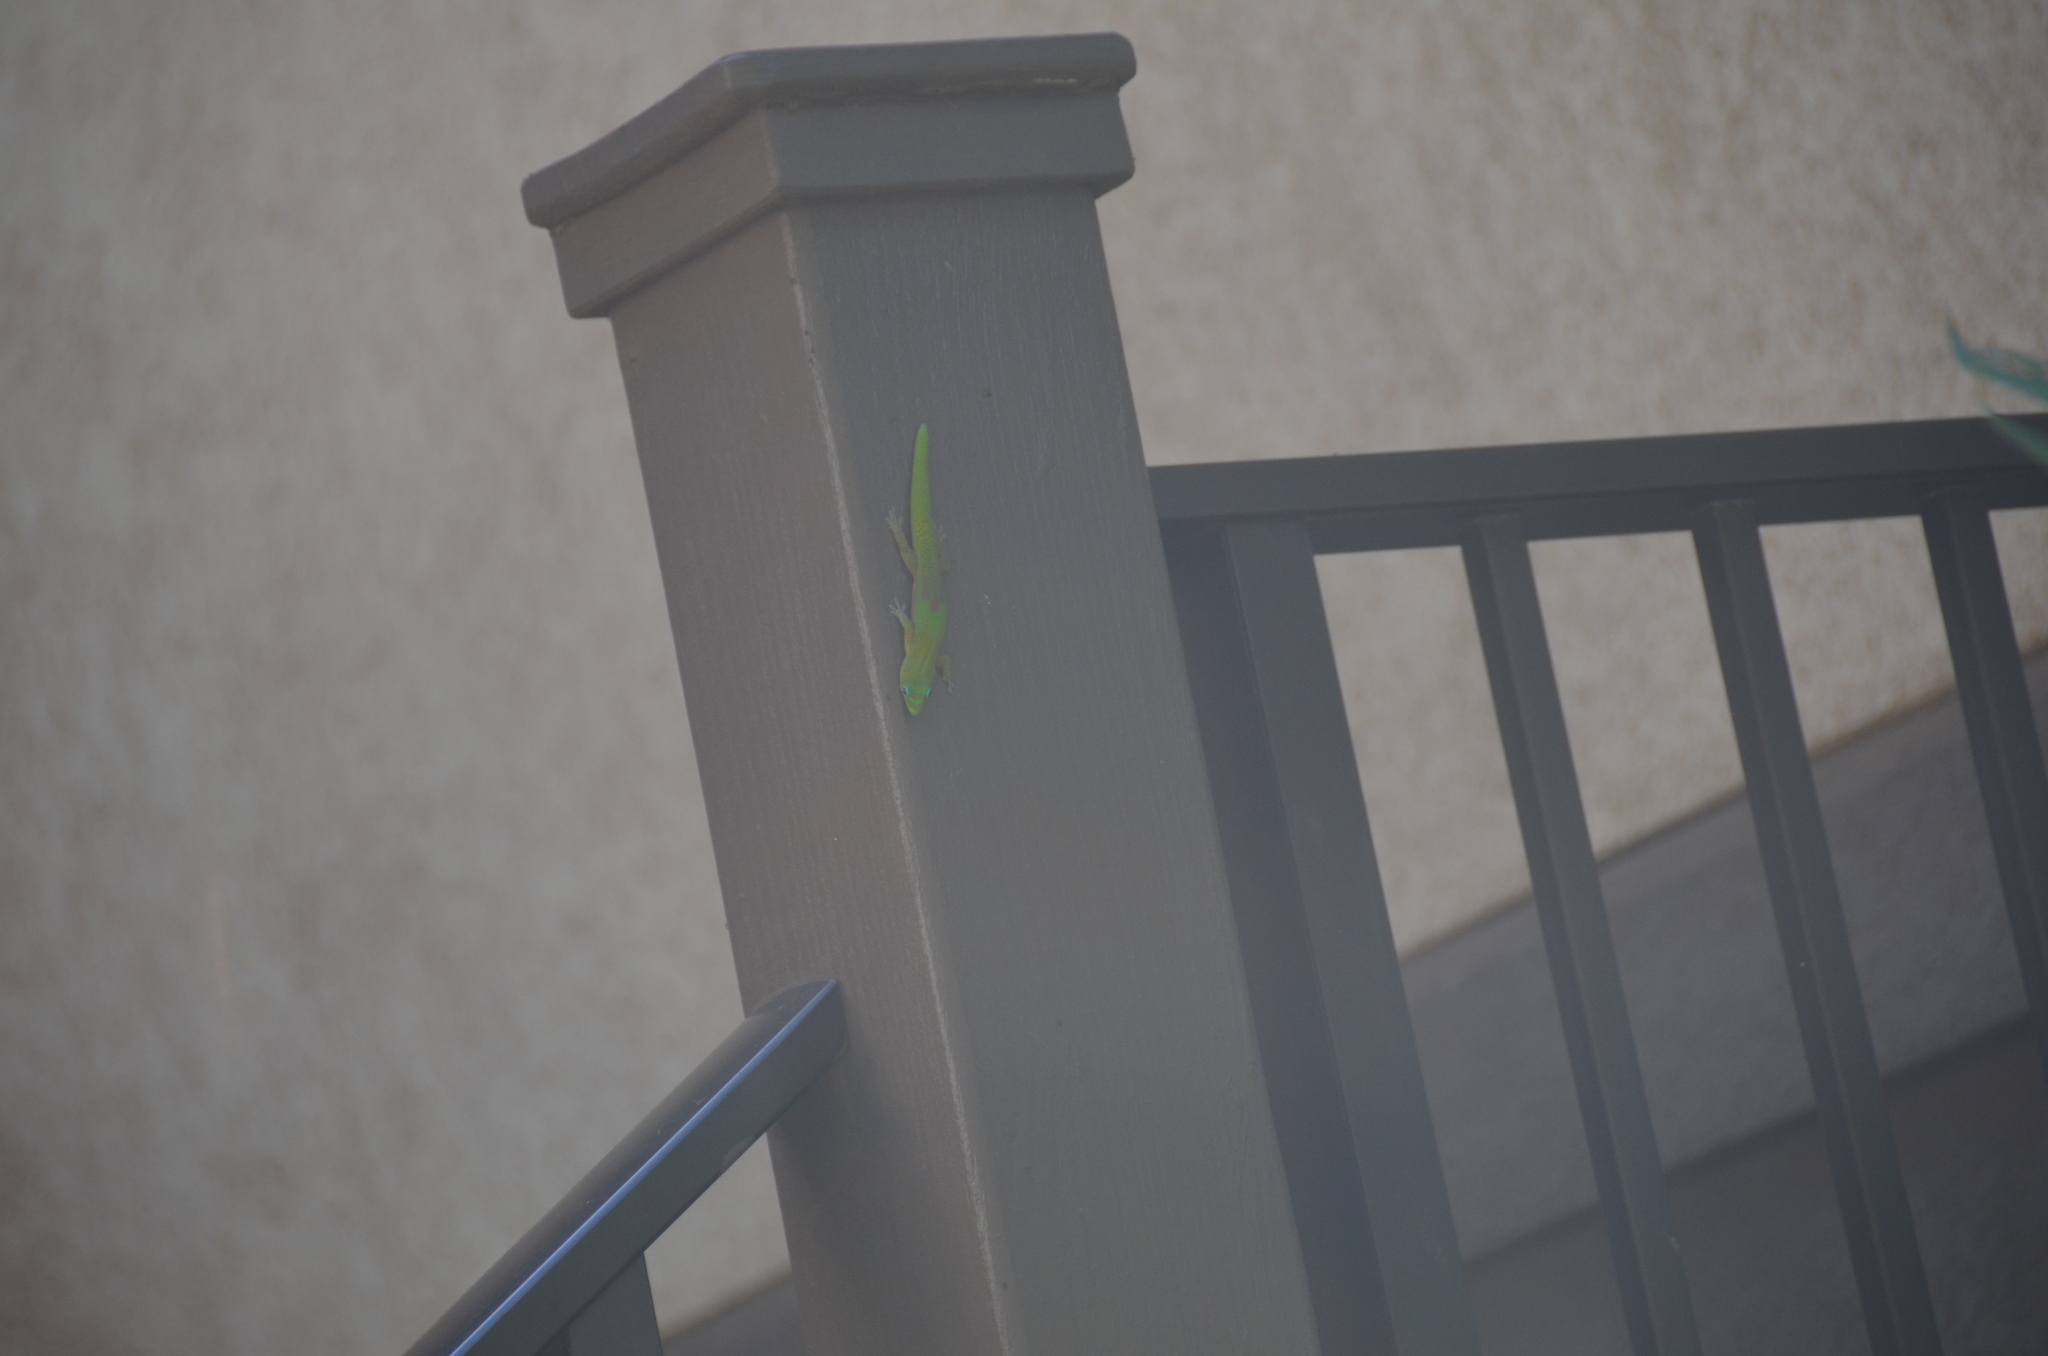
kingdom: Animalia
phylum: Chordata
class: Squamata
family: Gekkonidae
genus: Phelsuma
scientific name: Phelsuma laticauda
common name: Gold dust day gecko
